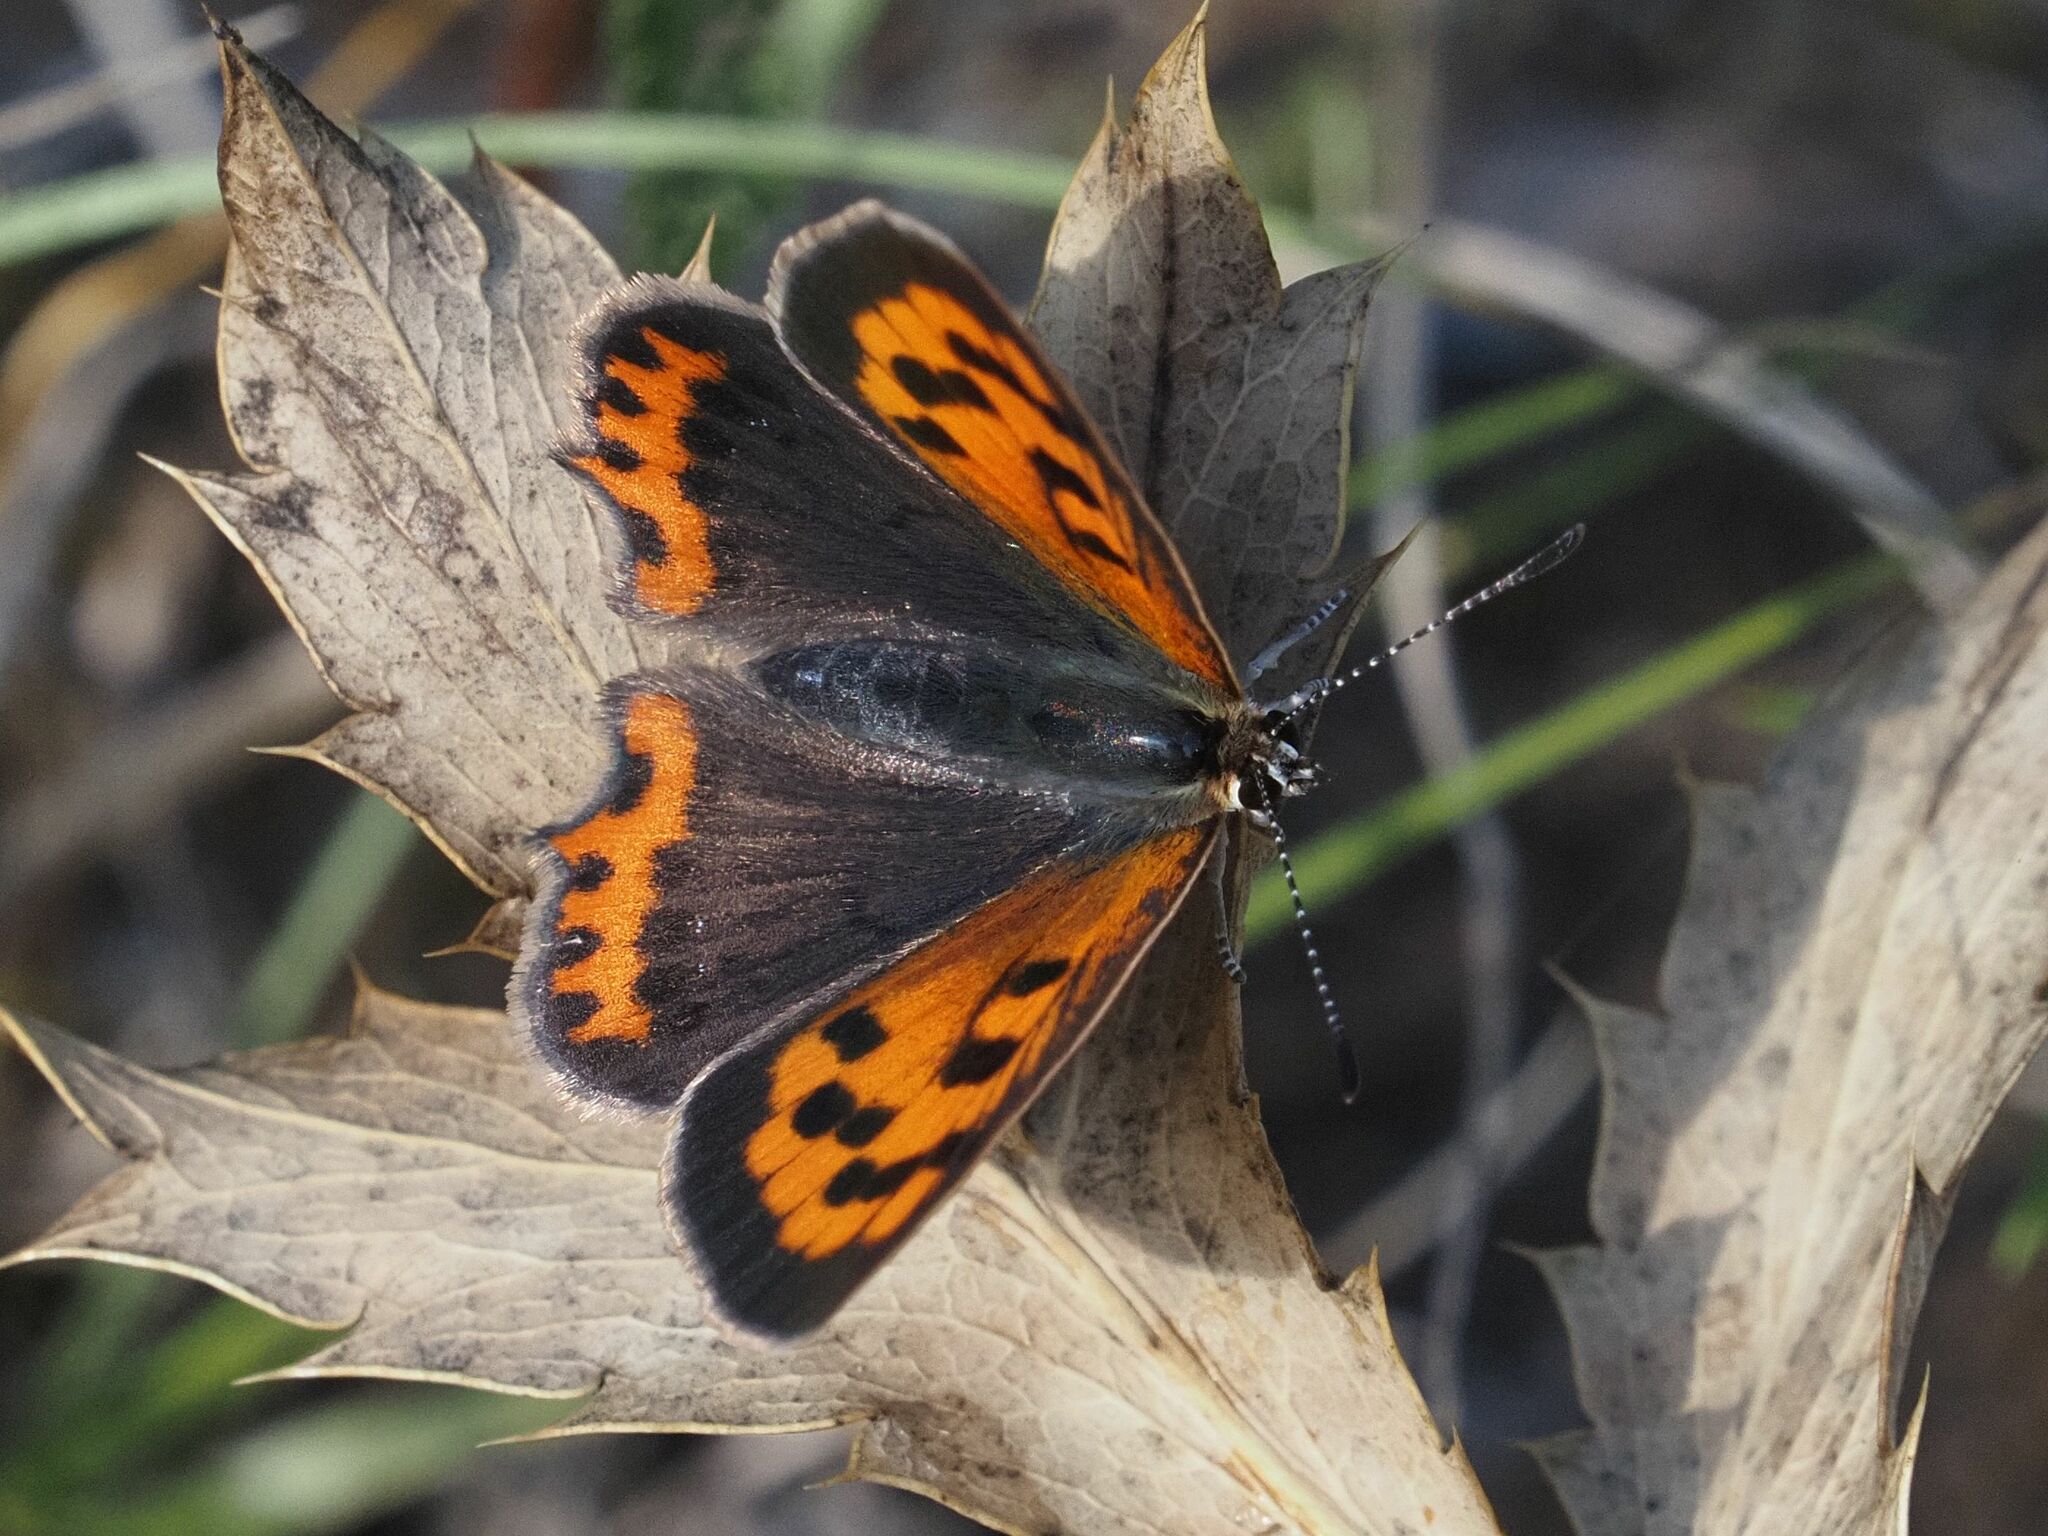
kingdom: Animalia
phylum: Arthropoda
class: Insecta
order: Lepidoptera
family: Lycaenidae
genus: Lycaena
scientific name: Lycaena phlaeas
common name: Small copper
